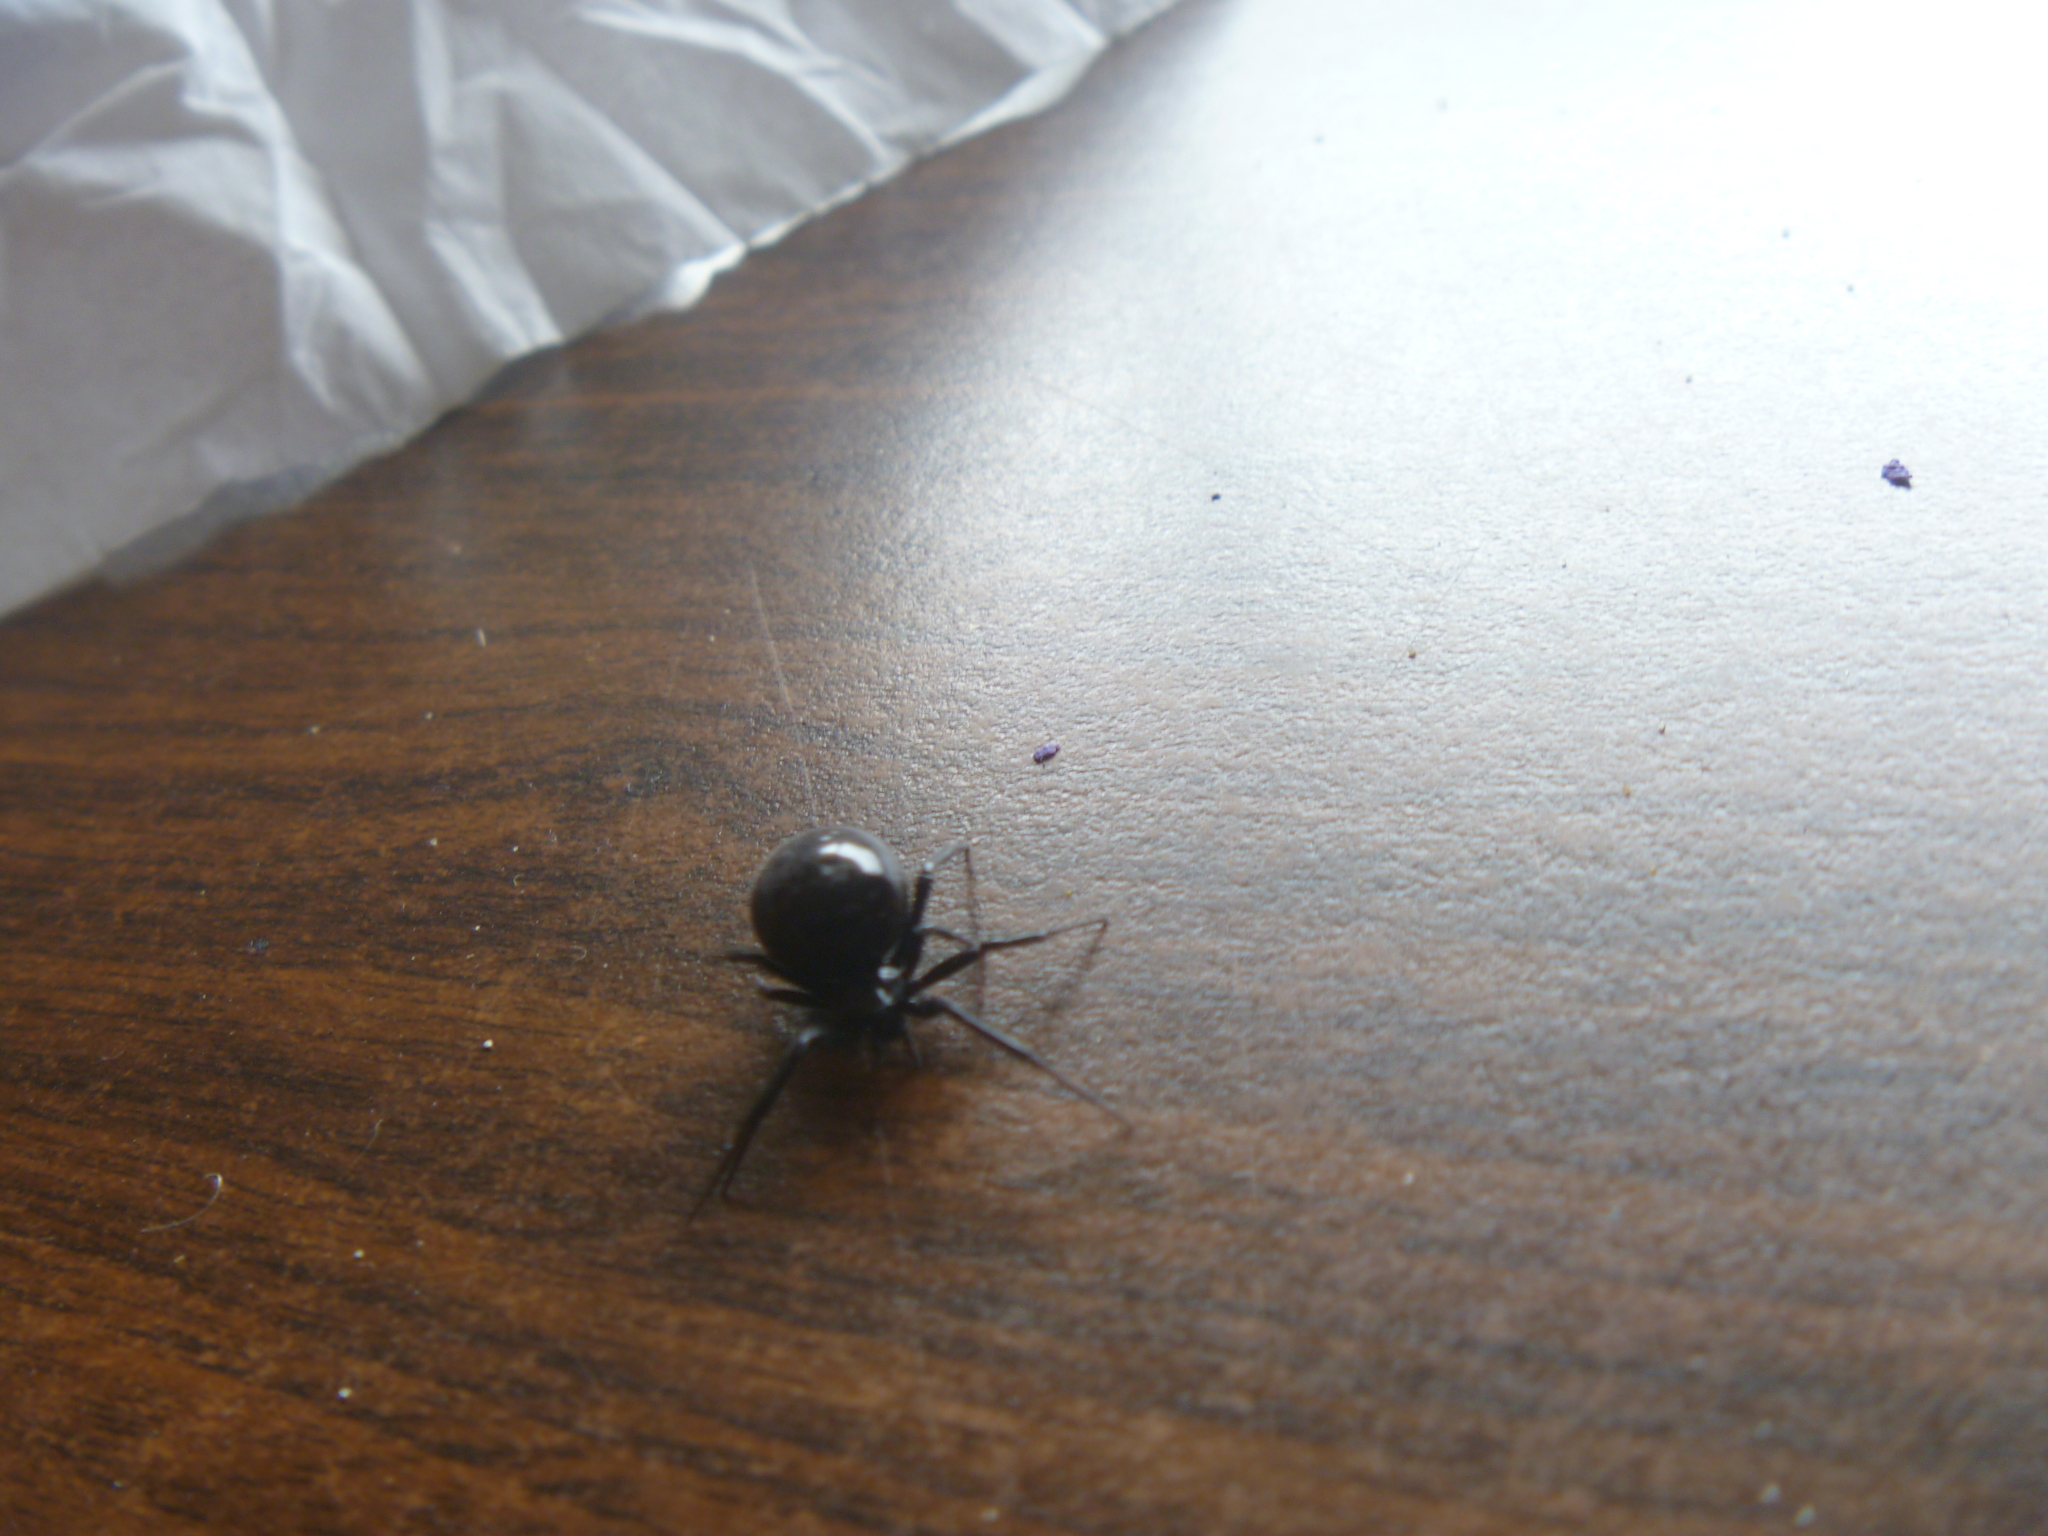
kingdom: Animalia
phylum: Arthropoda
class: Arachnida
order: Araneae
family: Theridiidae
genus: Steatoda
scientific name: Steatoda capensis
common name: Cobweb weaver
